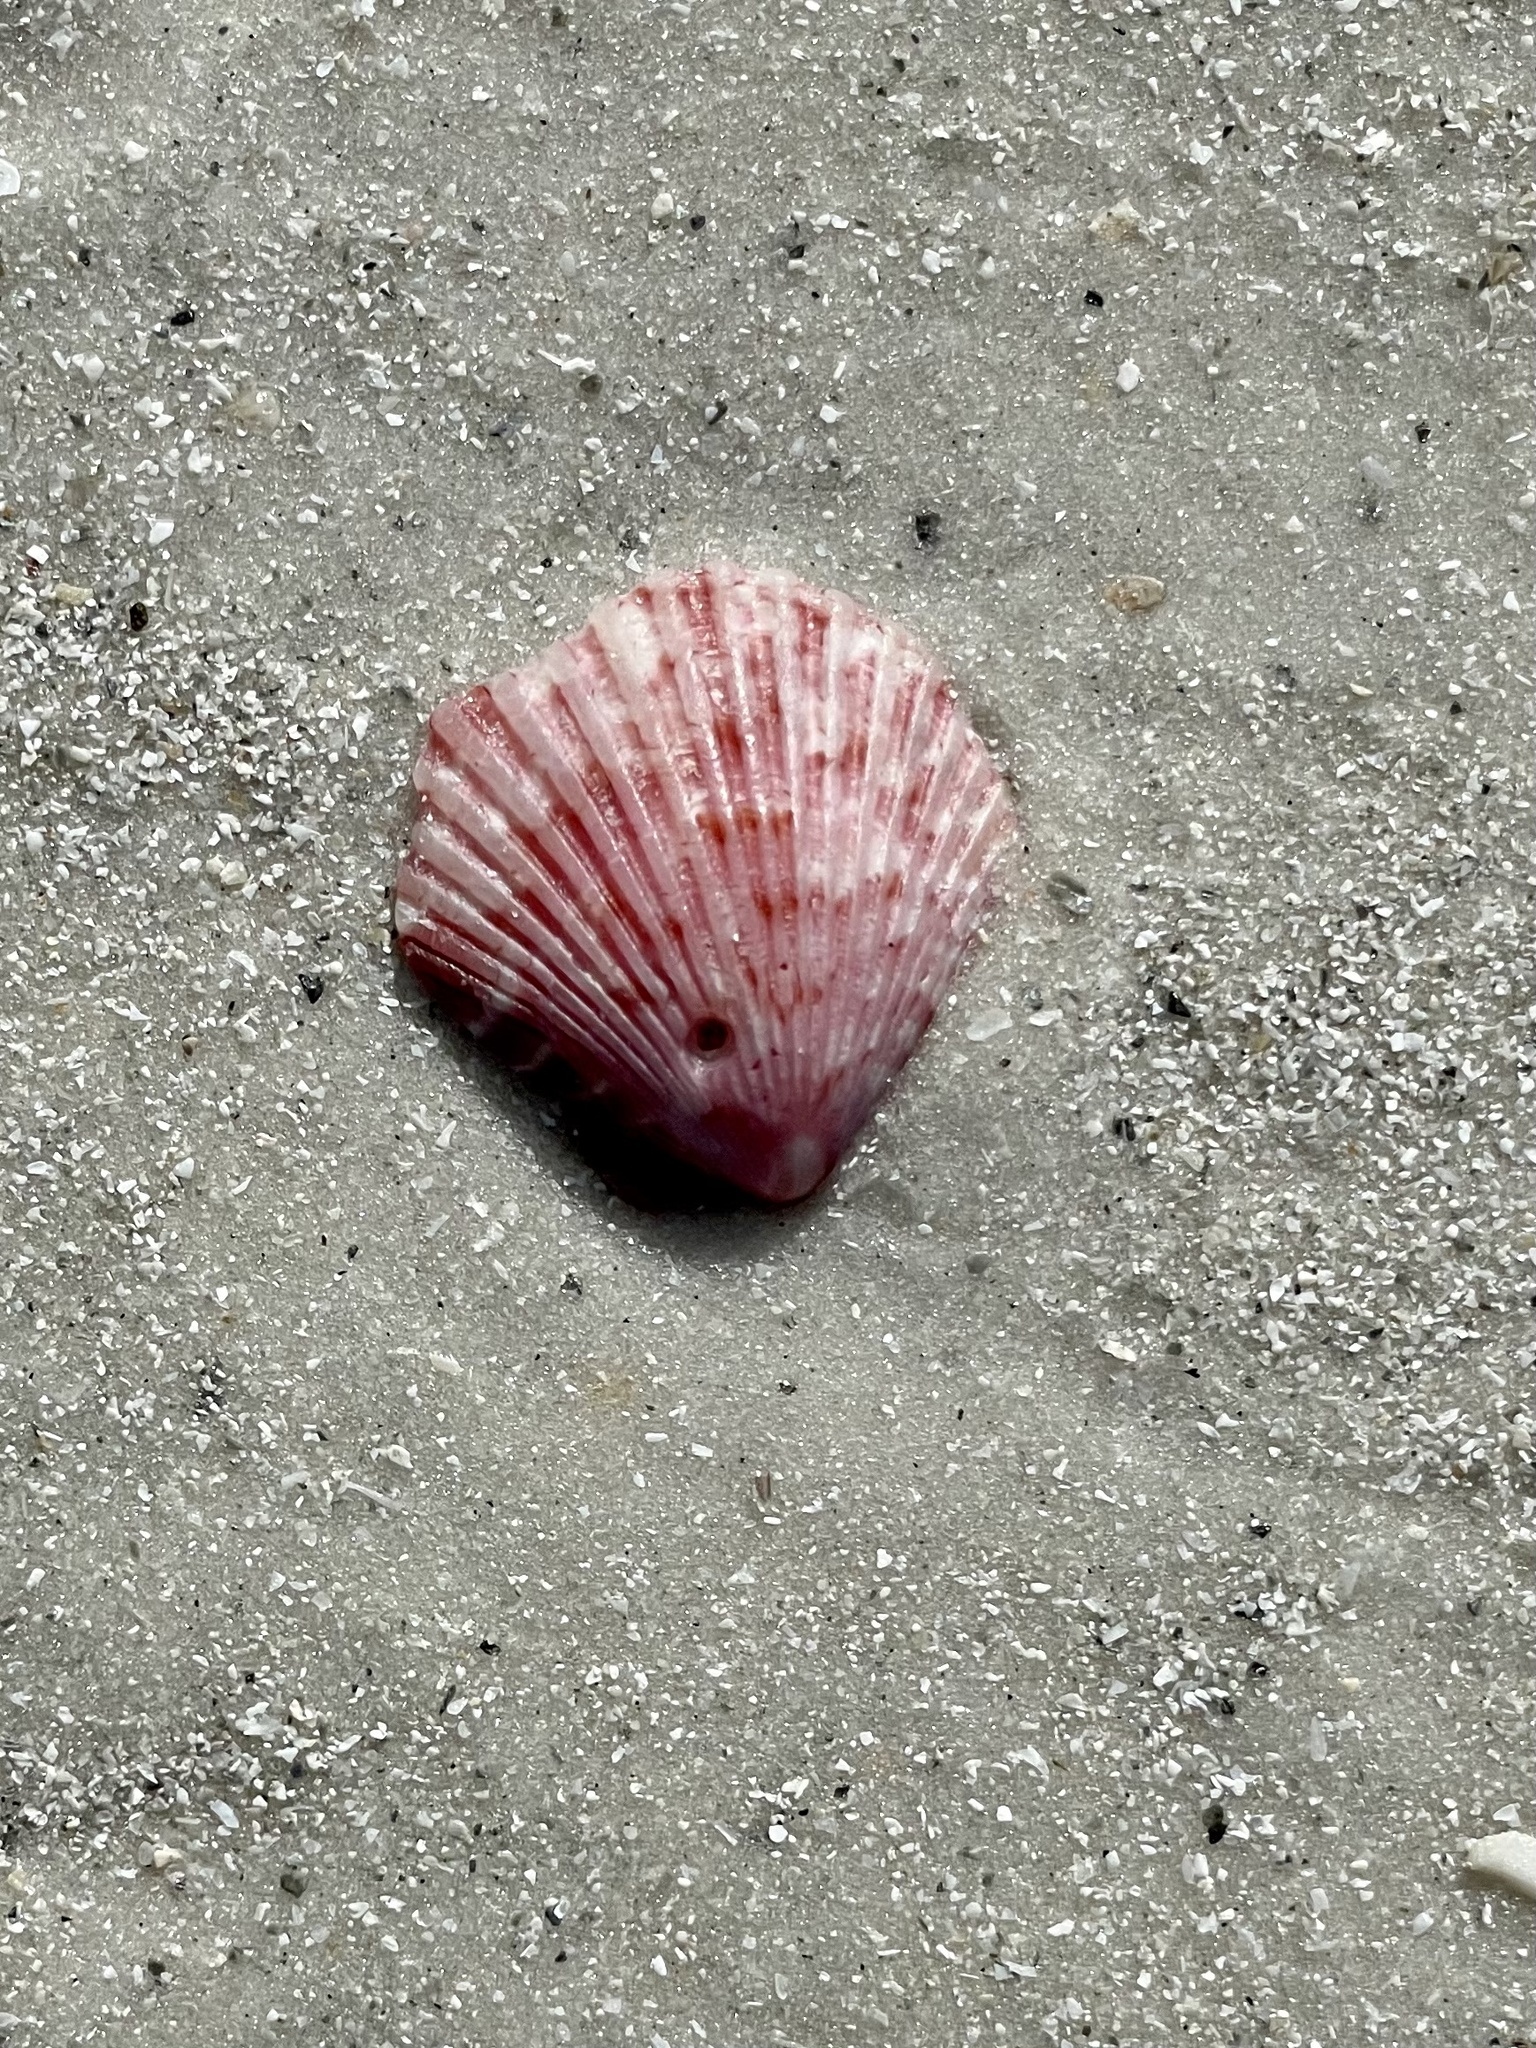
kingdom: Animalia
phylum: Mollusca
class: Bivalvia
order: Pectinida
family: Pectinidae
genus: Argopecten
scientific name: Argopecten gibbus
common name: Atlantic calico scallop
